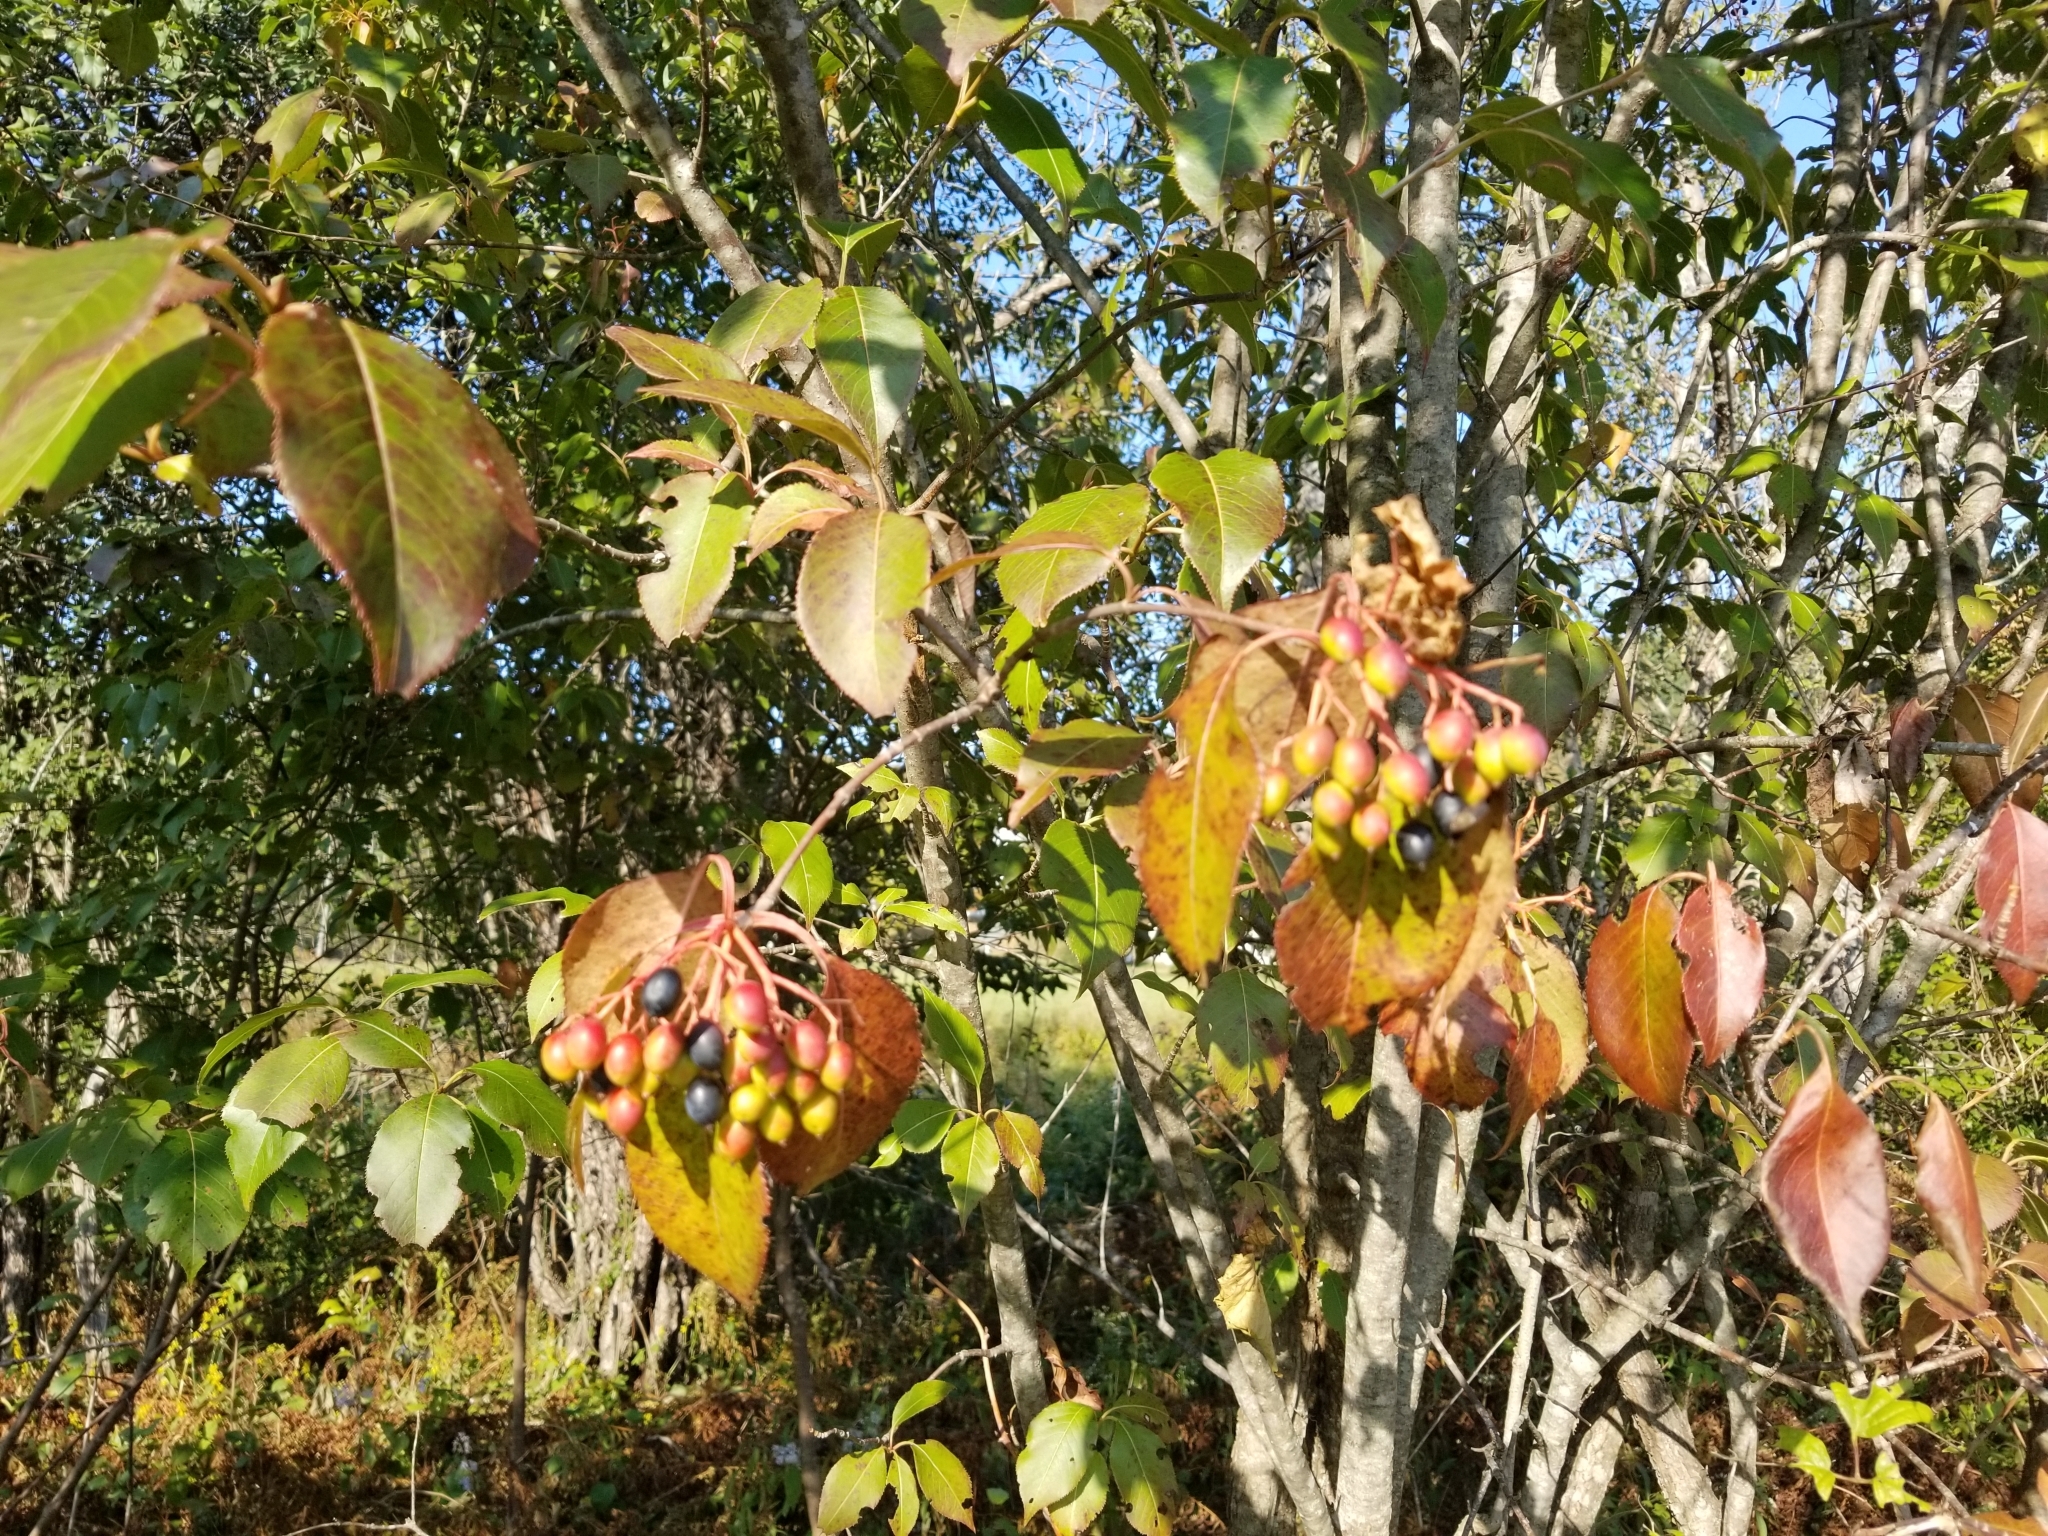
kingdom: Plantae
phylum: Tracheophyta
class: Magnoliopsida
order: Dipsacales
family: Viburnaceae
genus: Viburnum
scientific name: Viburnum lentago
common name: Black haw
